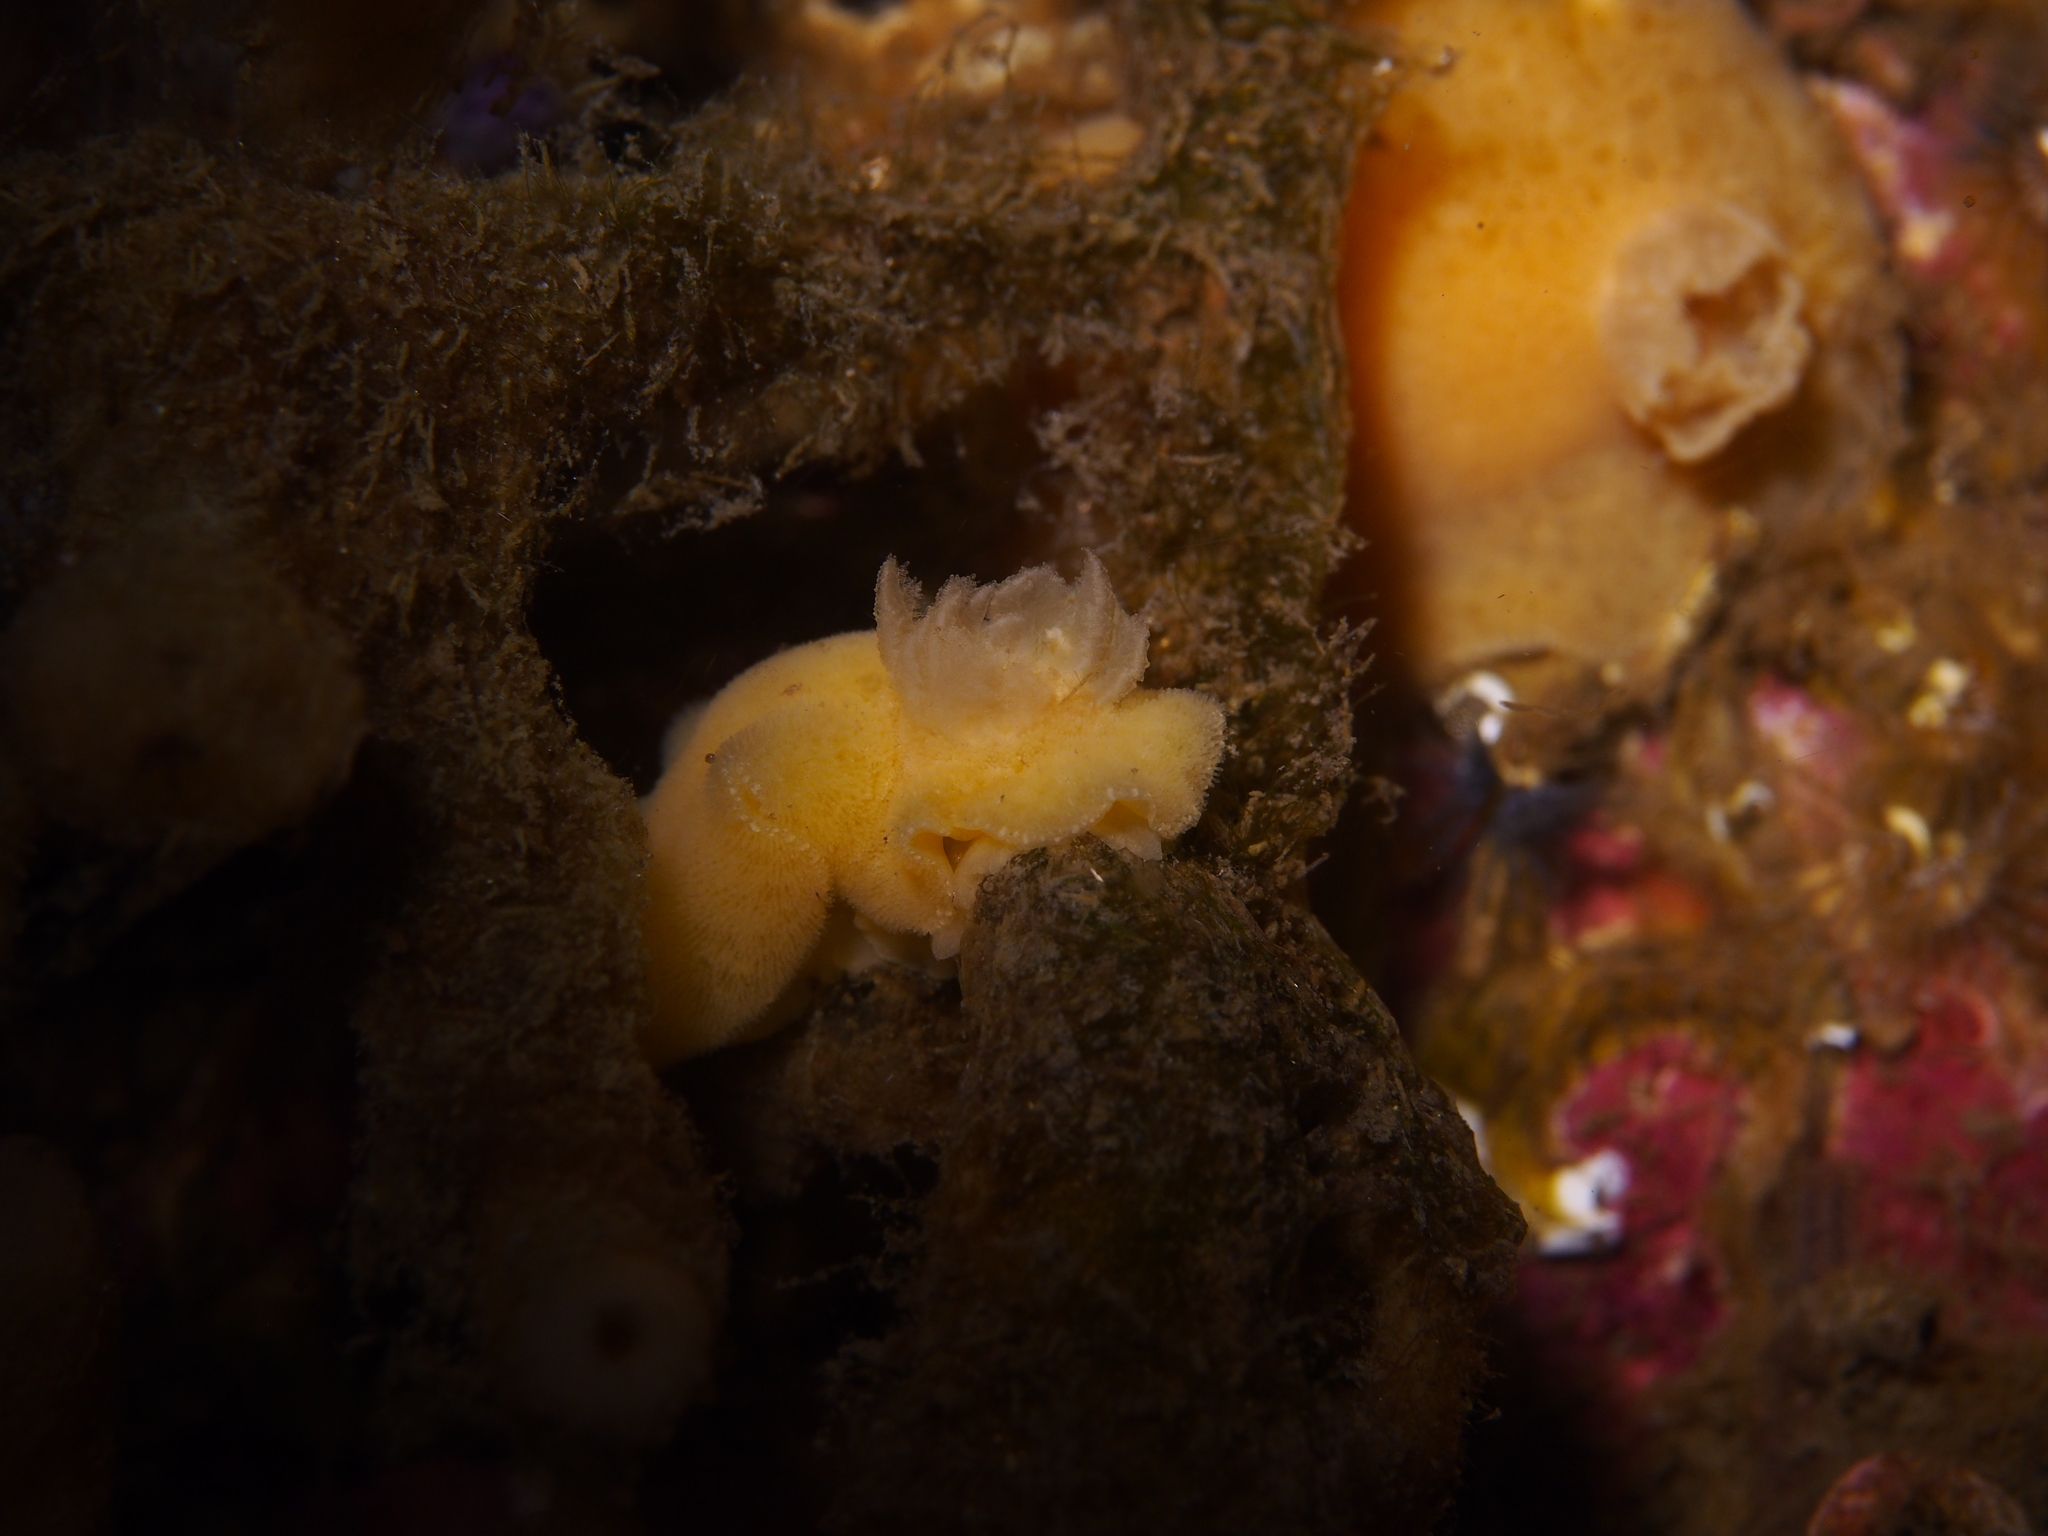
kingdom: Animalia
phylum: Mollusca
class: Gastropoda
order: Nudibranchia
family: Discodorididae
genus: Jorunna
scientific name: Jorunna tomentosa
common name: Grey sea slug
